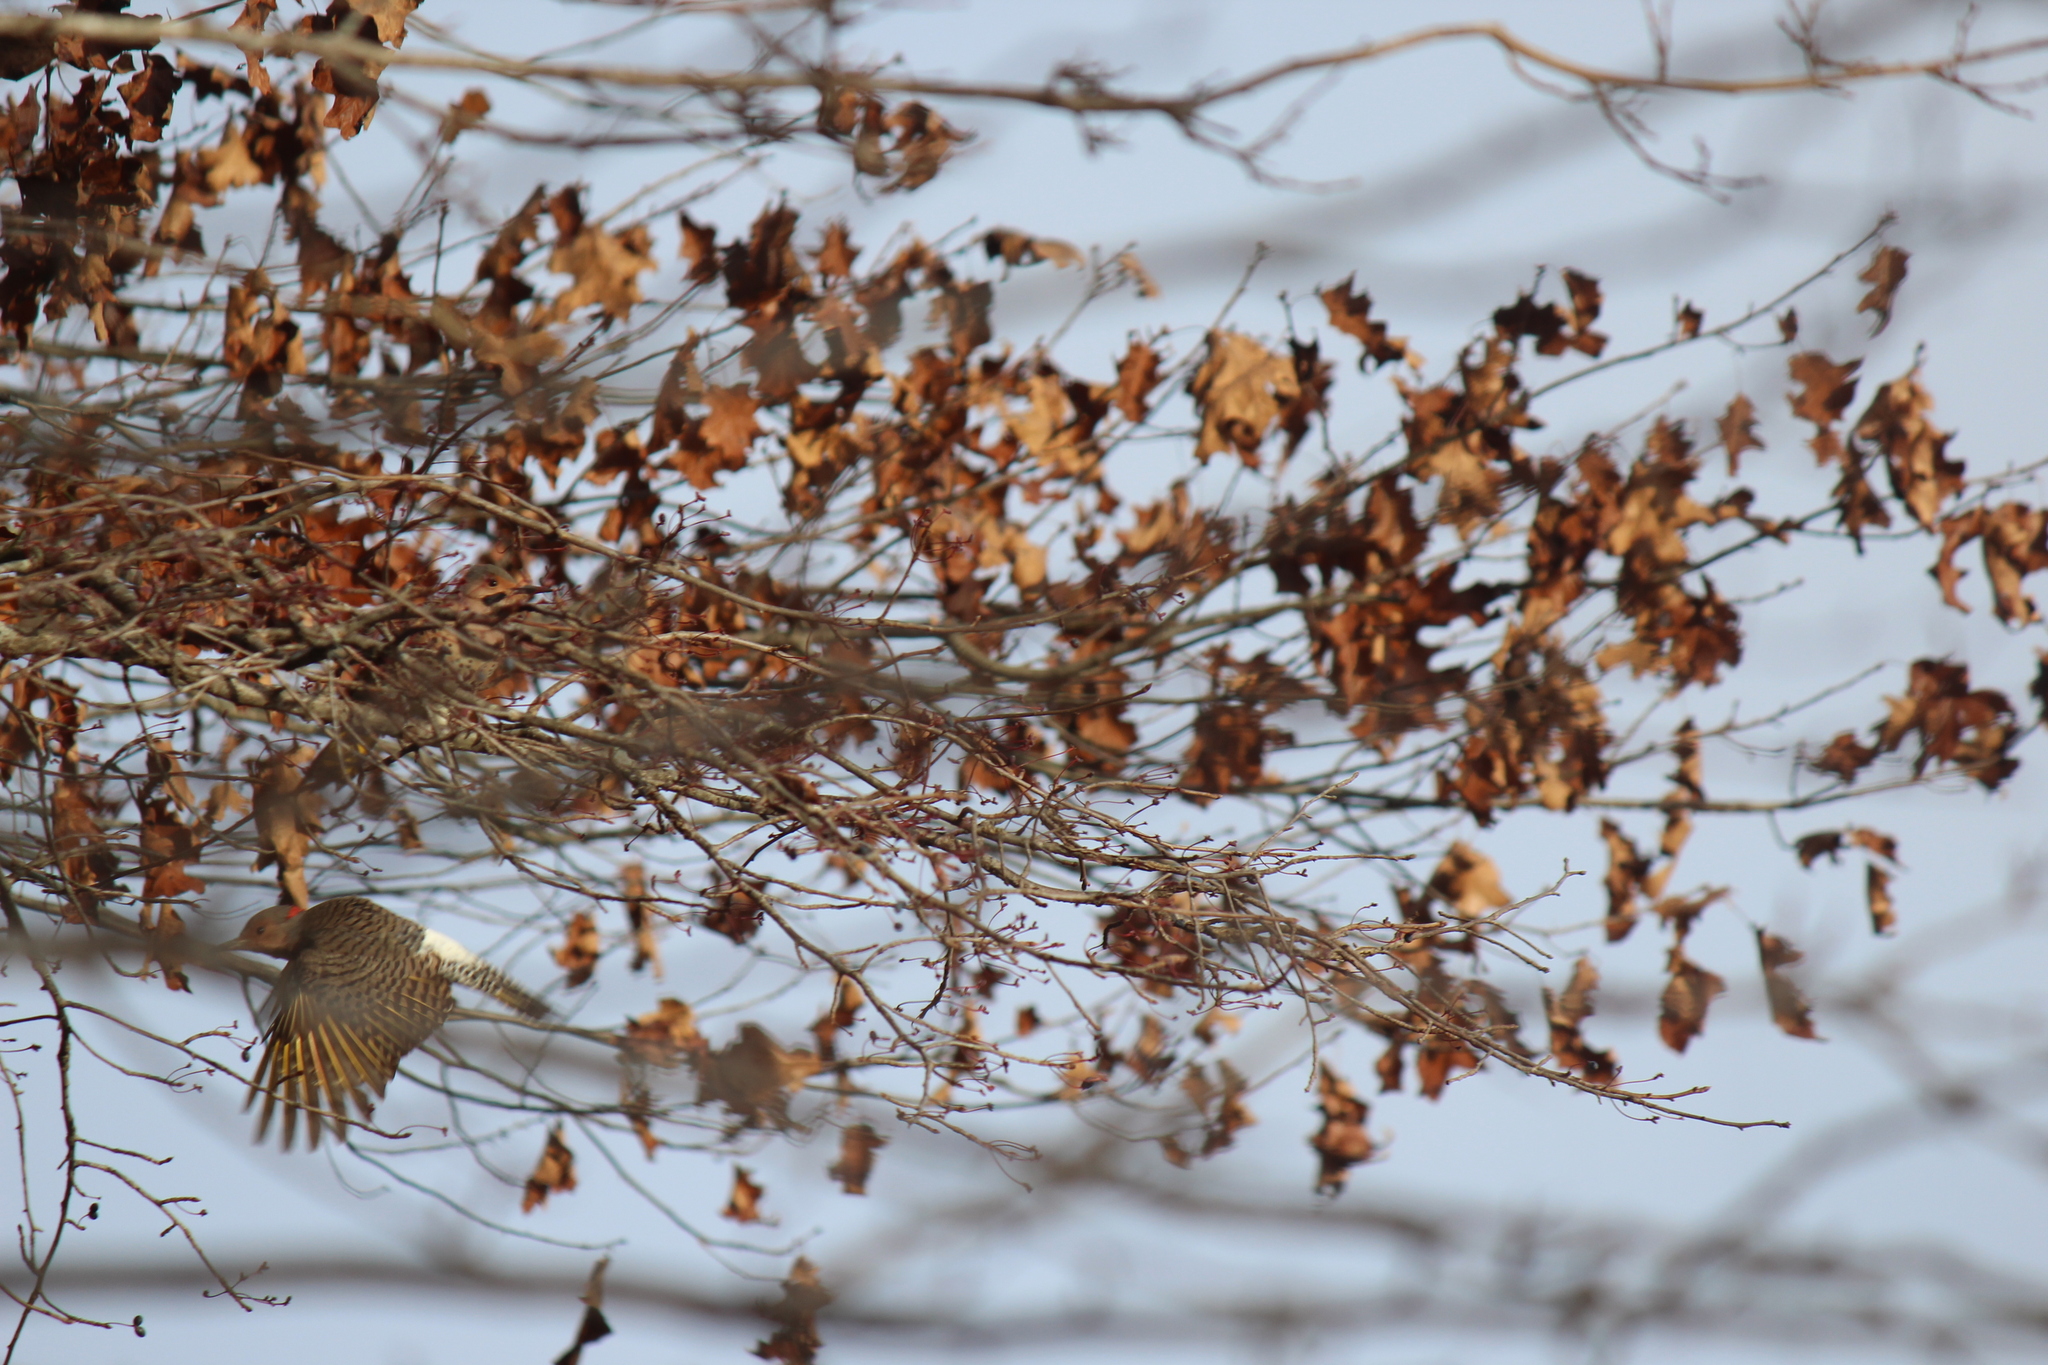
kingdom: Animalia
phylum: Chordata
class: Aves
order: Piciformes
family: Picidae
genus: Colaptes
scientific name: Colaptes auratus
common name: Northern flicker
